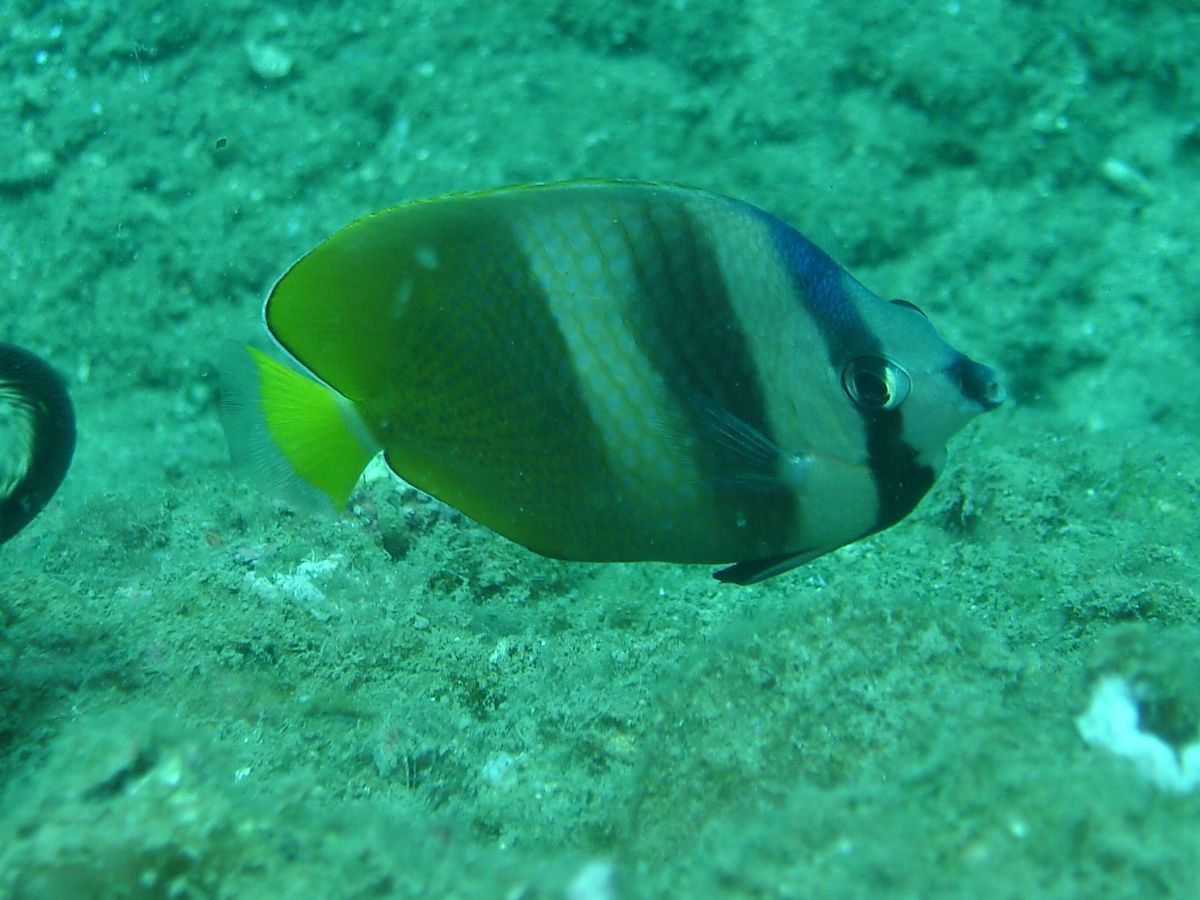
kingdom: Animalia
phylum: Chordata
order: Perciformes
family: Chaetodontidae
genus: Chaetodon
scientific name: Chaetodon kleinii
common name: Klein's butterflyfish
